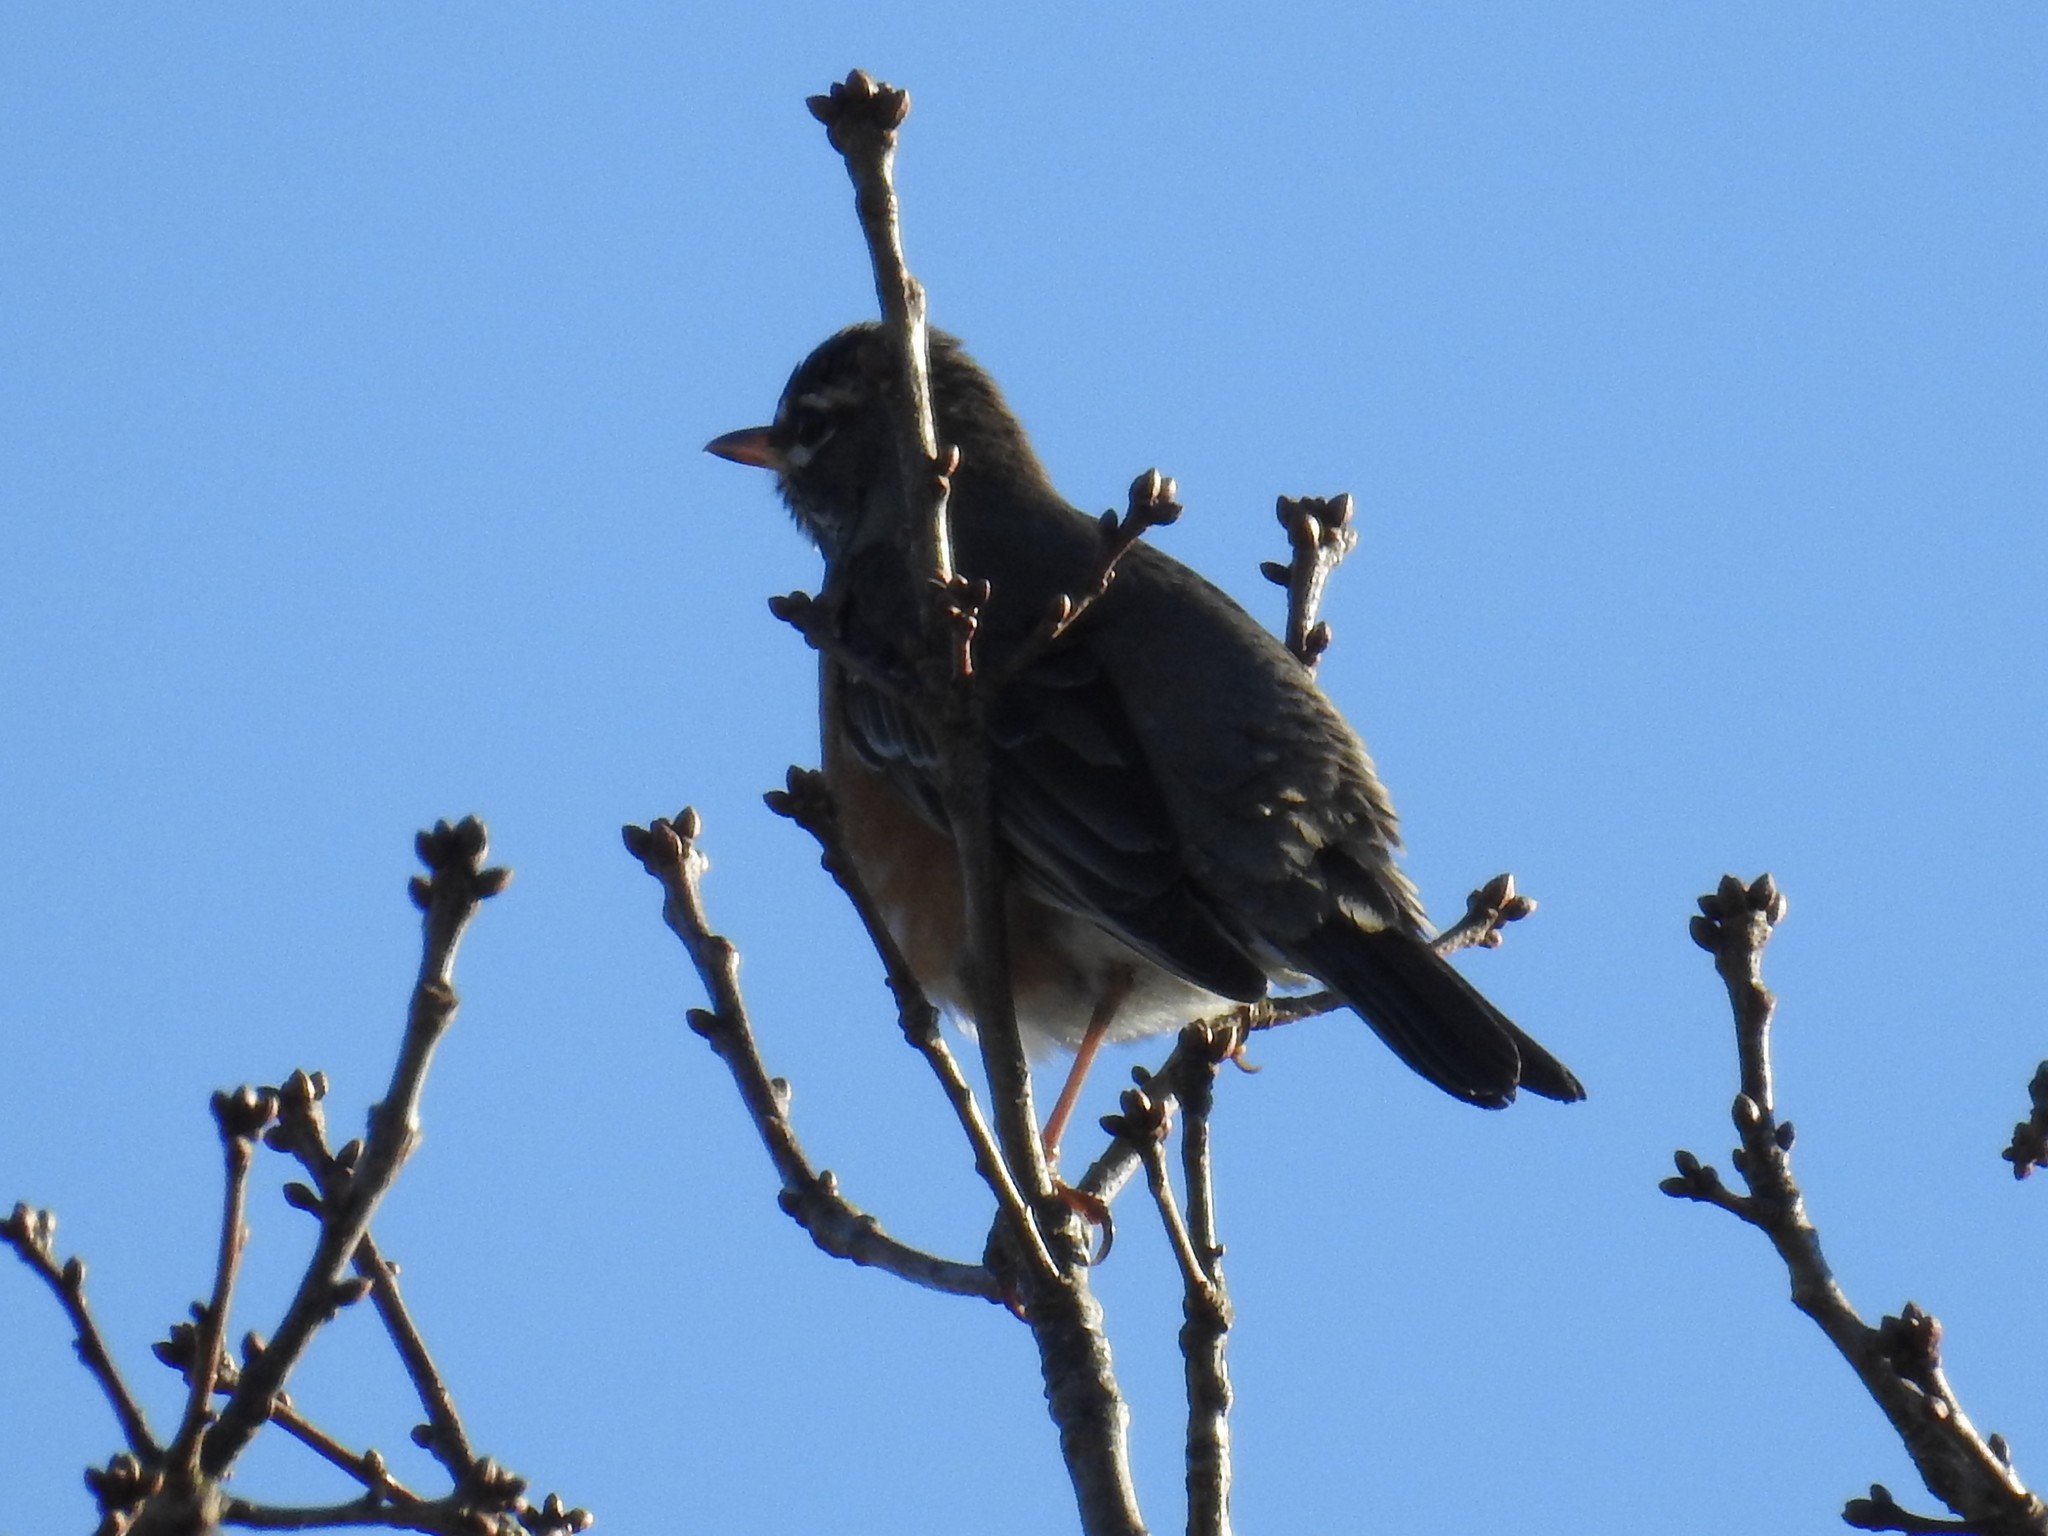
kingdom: Animalia
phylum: Chordata
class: Aves
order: Passeriformes
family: Turdidae
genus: Turdus
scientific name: Turdus migratorius
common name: American robin
